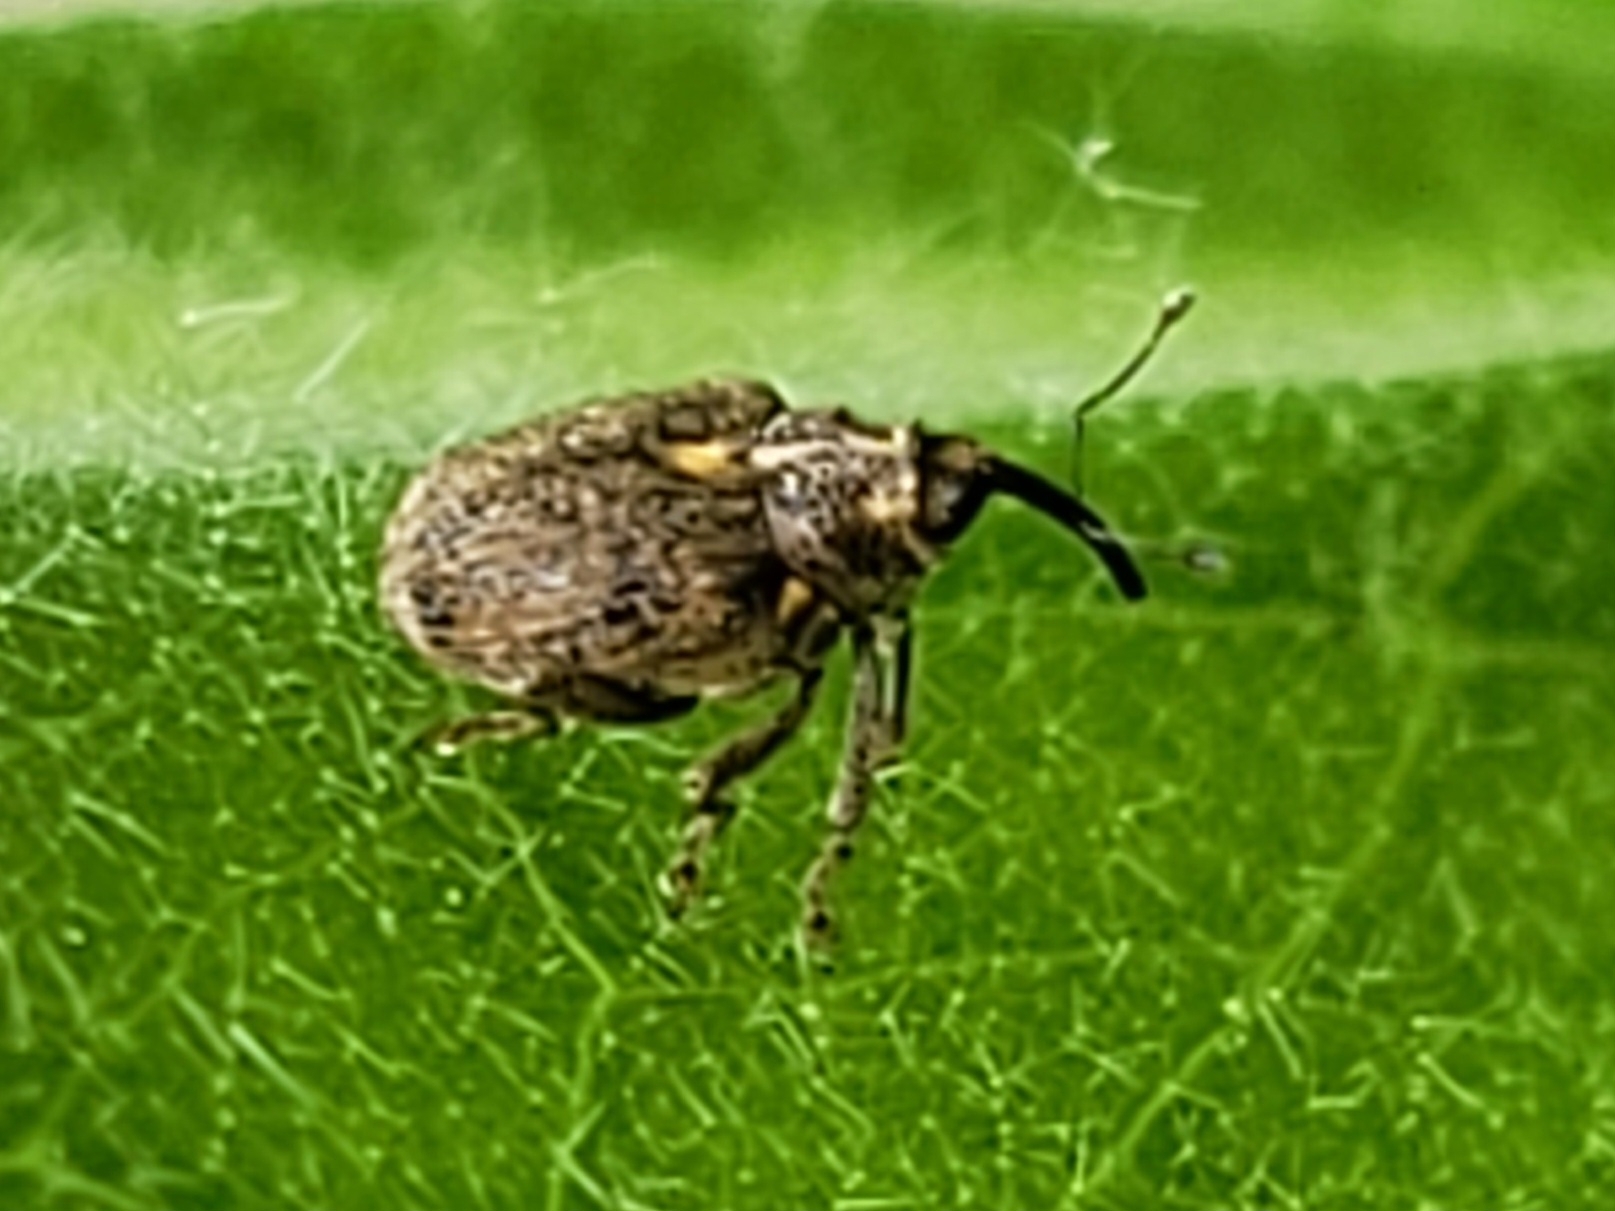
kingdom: Animalia
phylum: Arthropoda
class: Insecta
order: Coleoptera
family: Curculionidae
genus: Ceutorhynchus
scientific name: Ceutorhynchus pallidactylus
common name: Cabbage stem weavil
